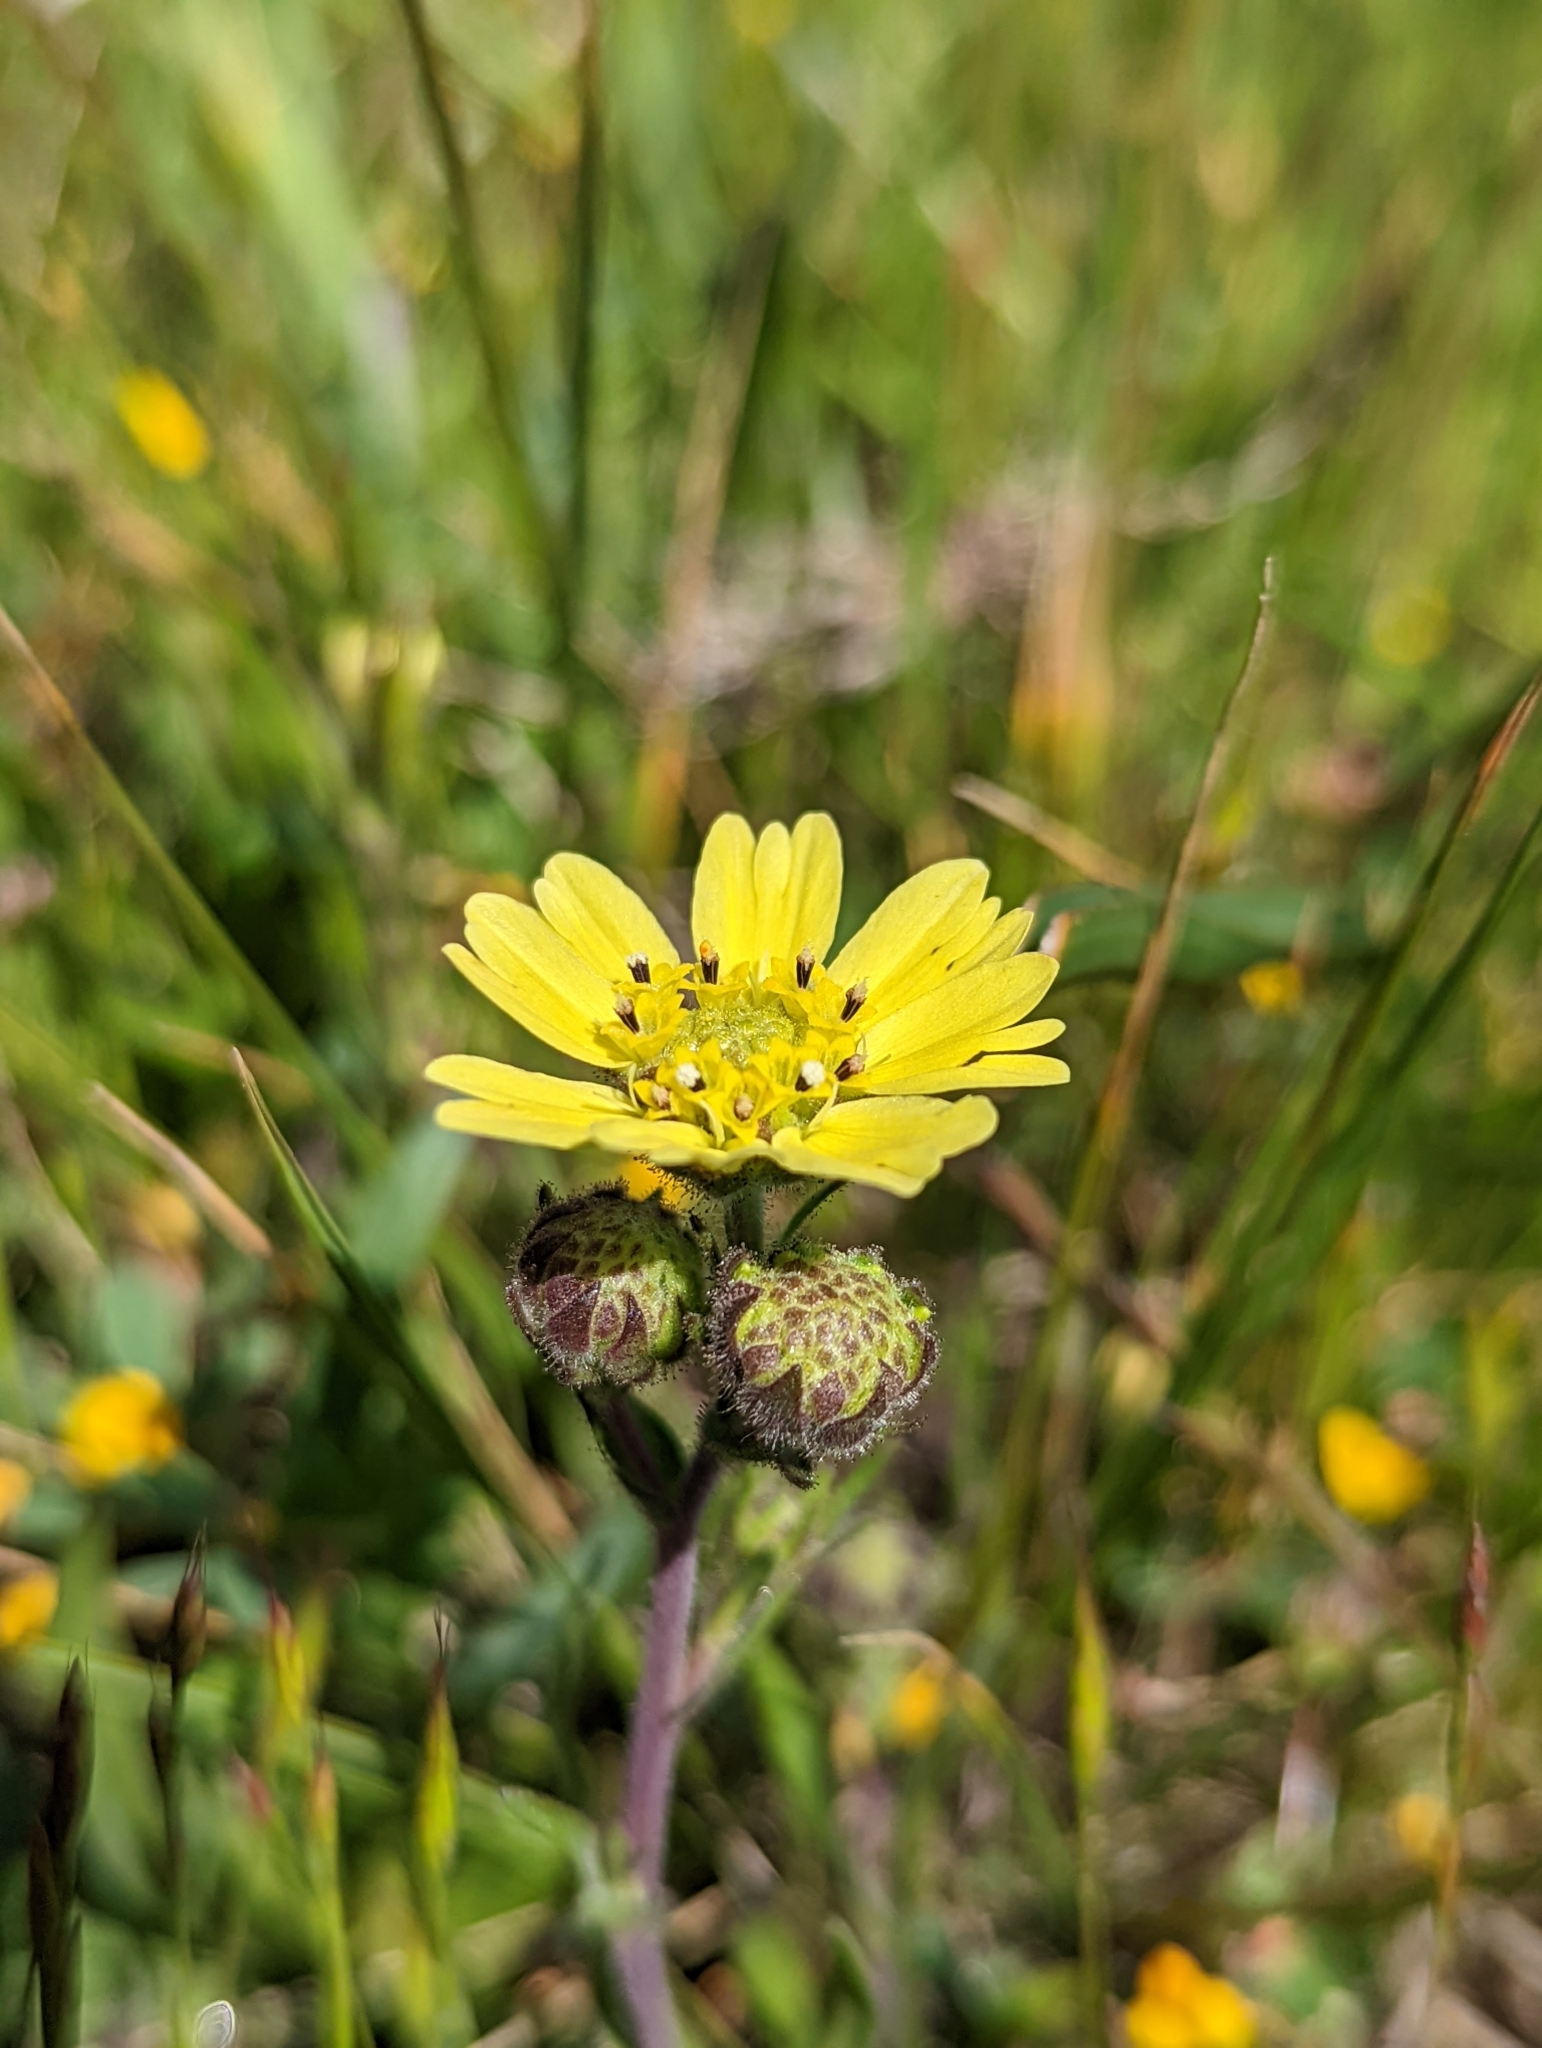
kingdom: Plantae
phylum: Tracheophyta
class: Magnoliopsida
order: Asterales
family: Asteraceae
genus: Hemizonia
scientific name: Hemizonia congesta
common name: Hayfield tarweed
